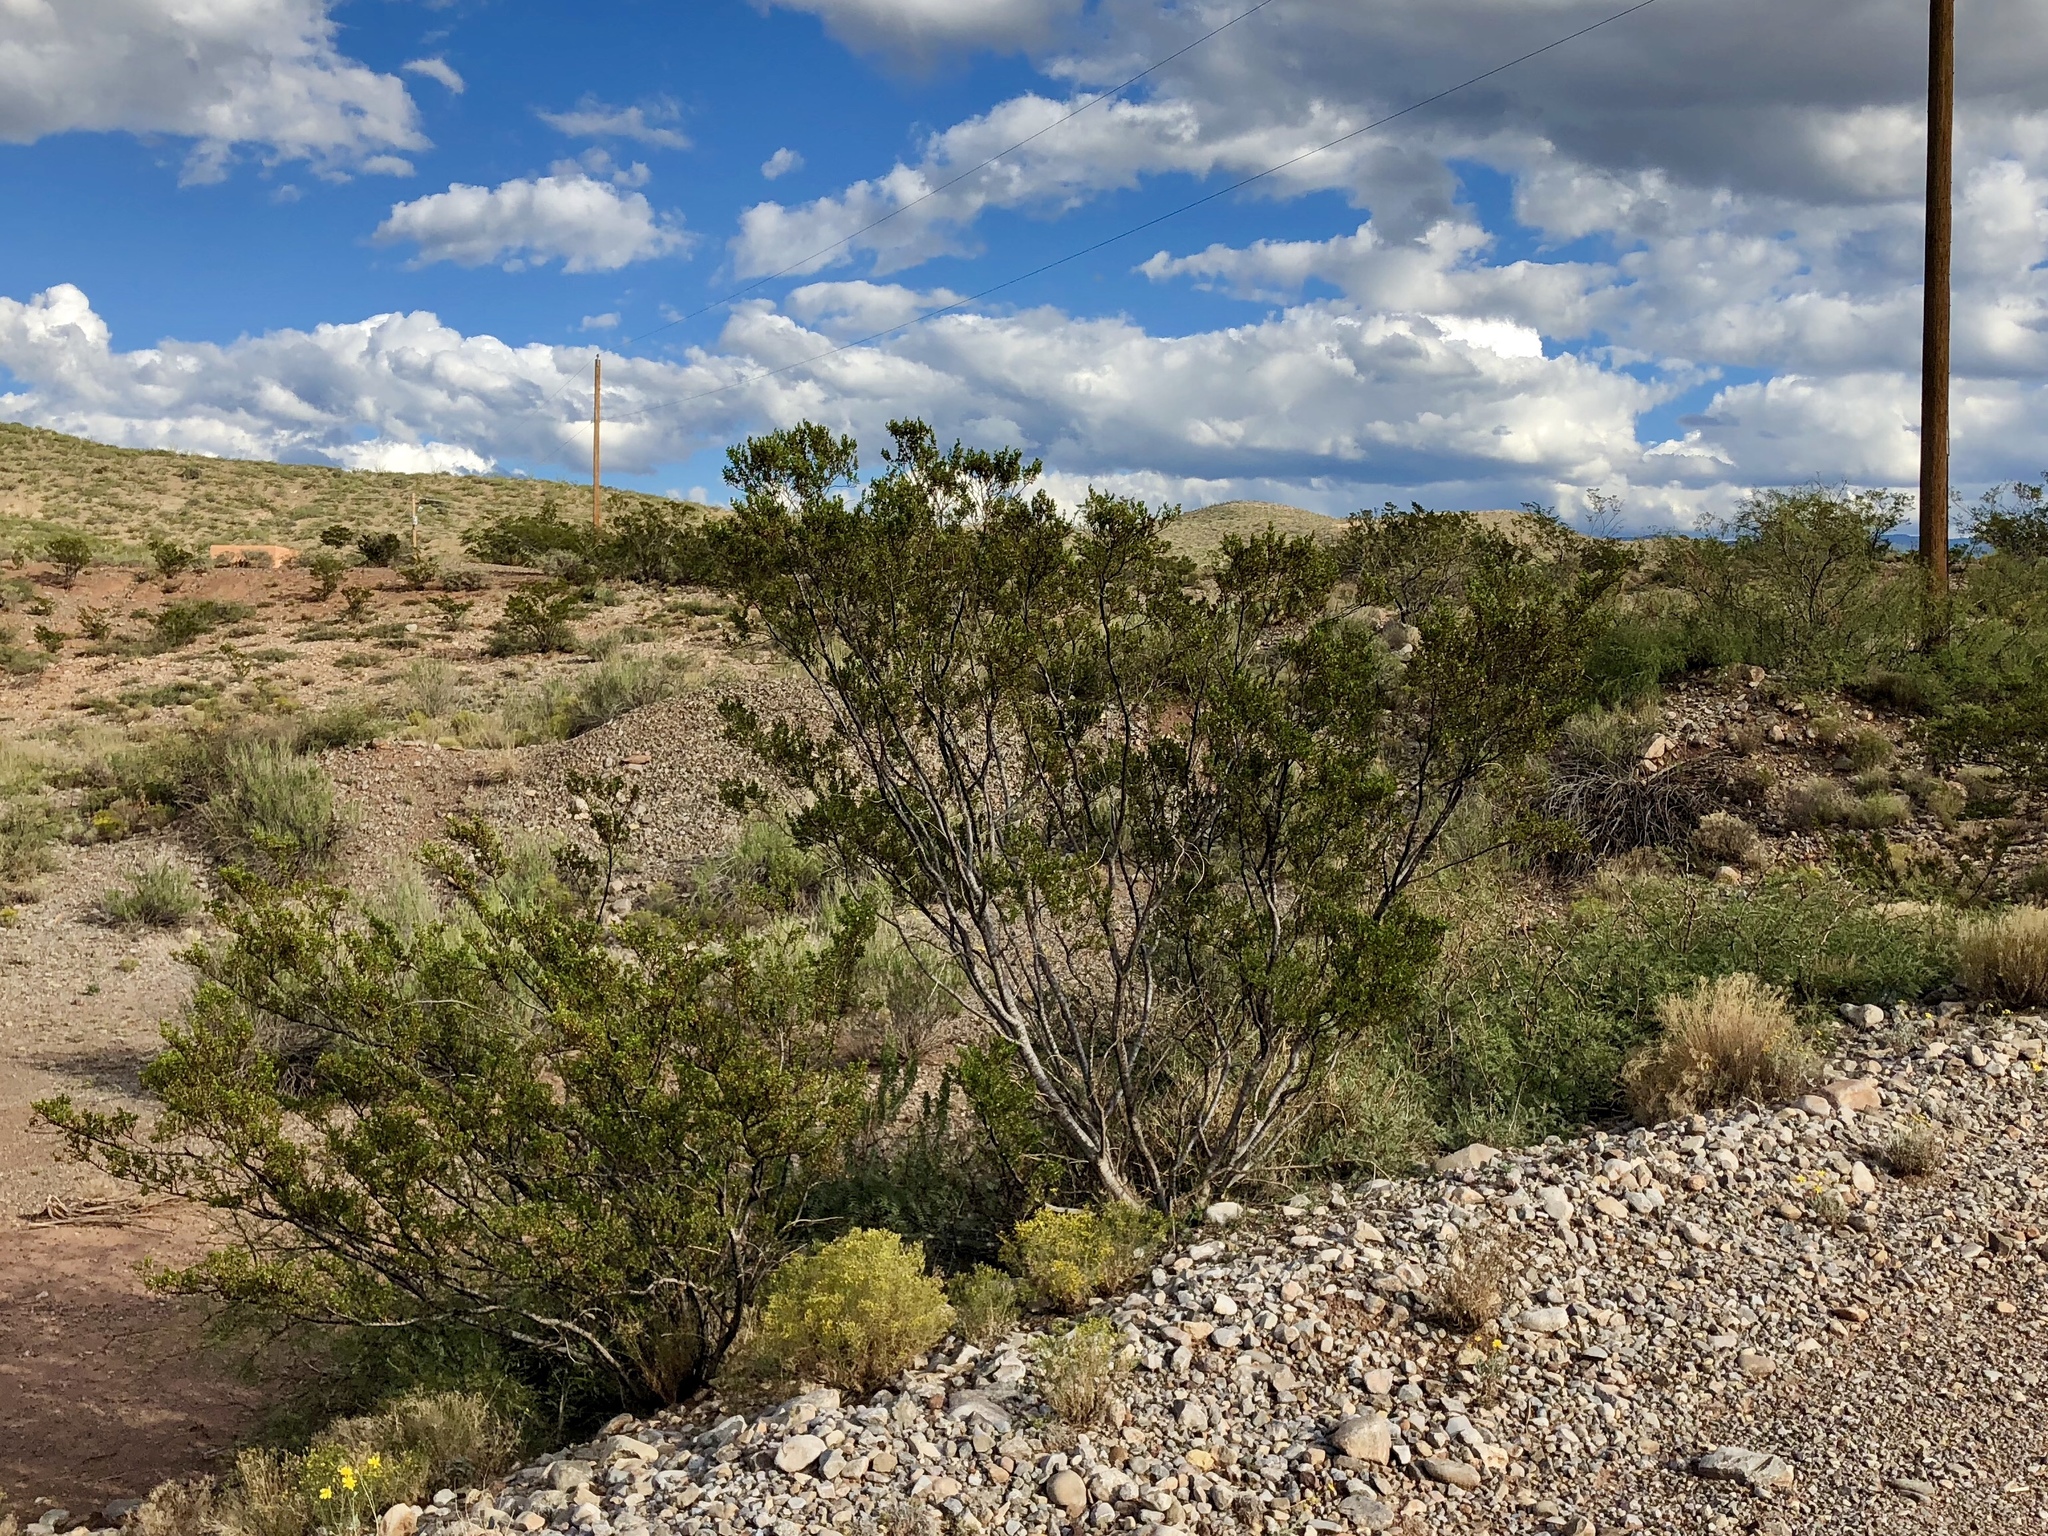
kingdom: Plantae
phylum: Tracheophyta
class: Magnoliopsida
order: Zygophyllales
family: Zygophyllaceae
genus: Larrea
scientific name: Larrea tridentata
